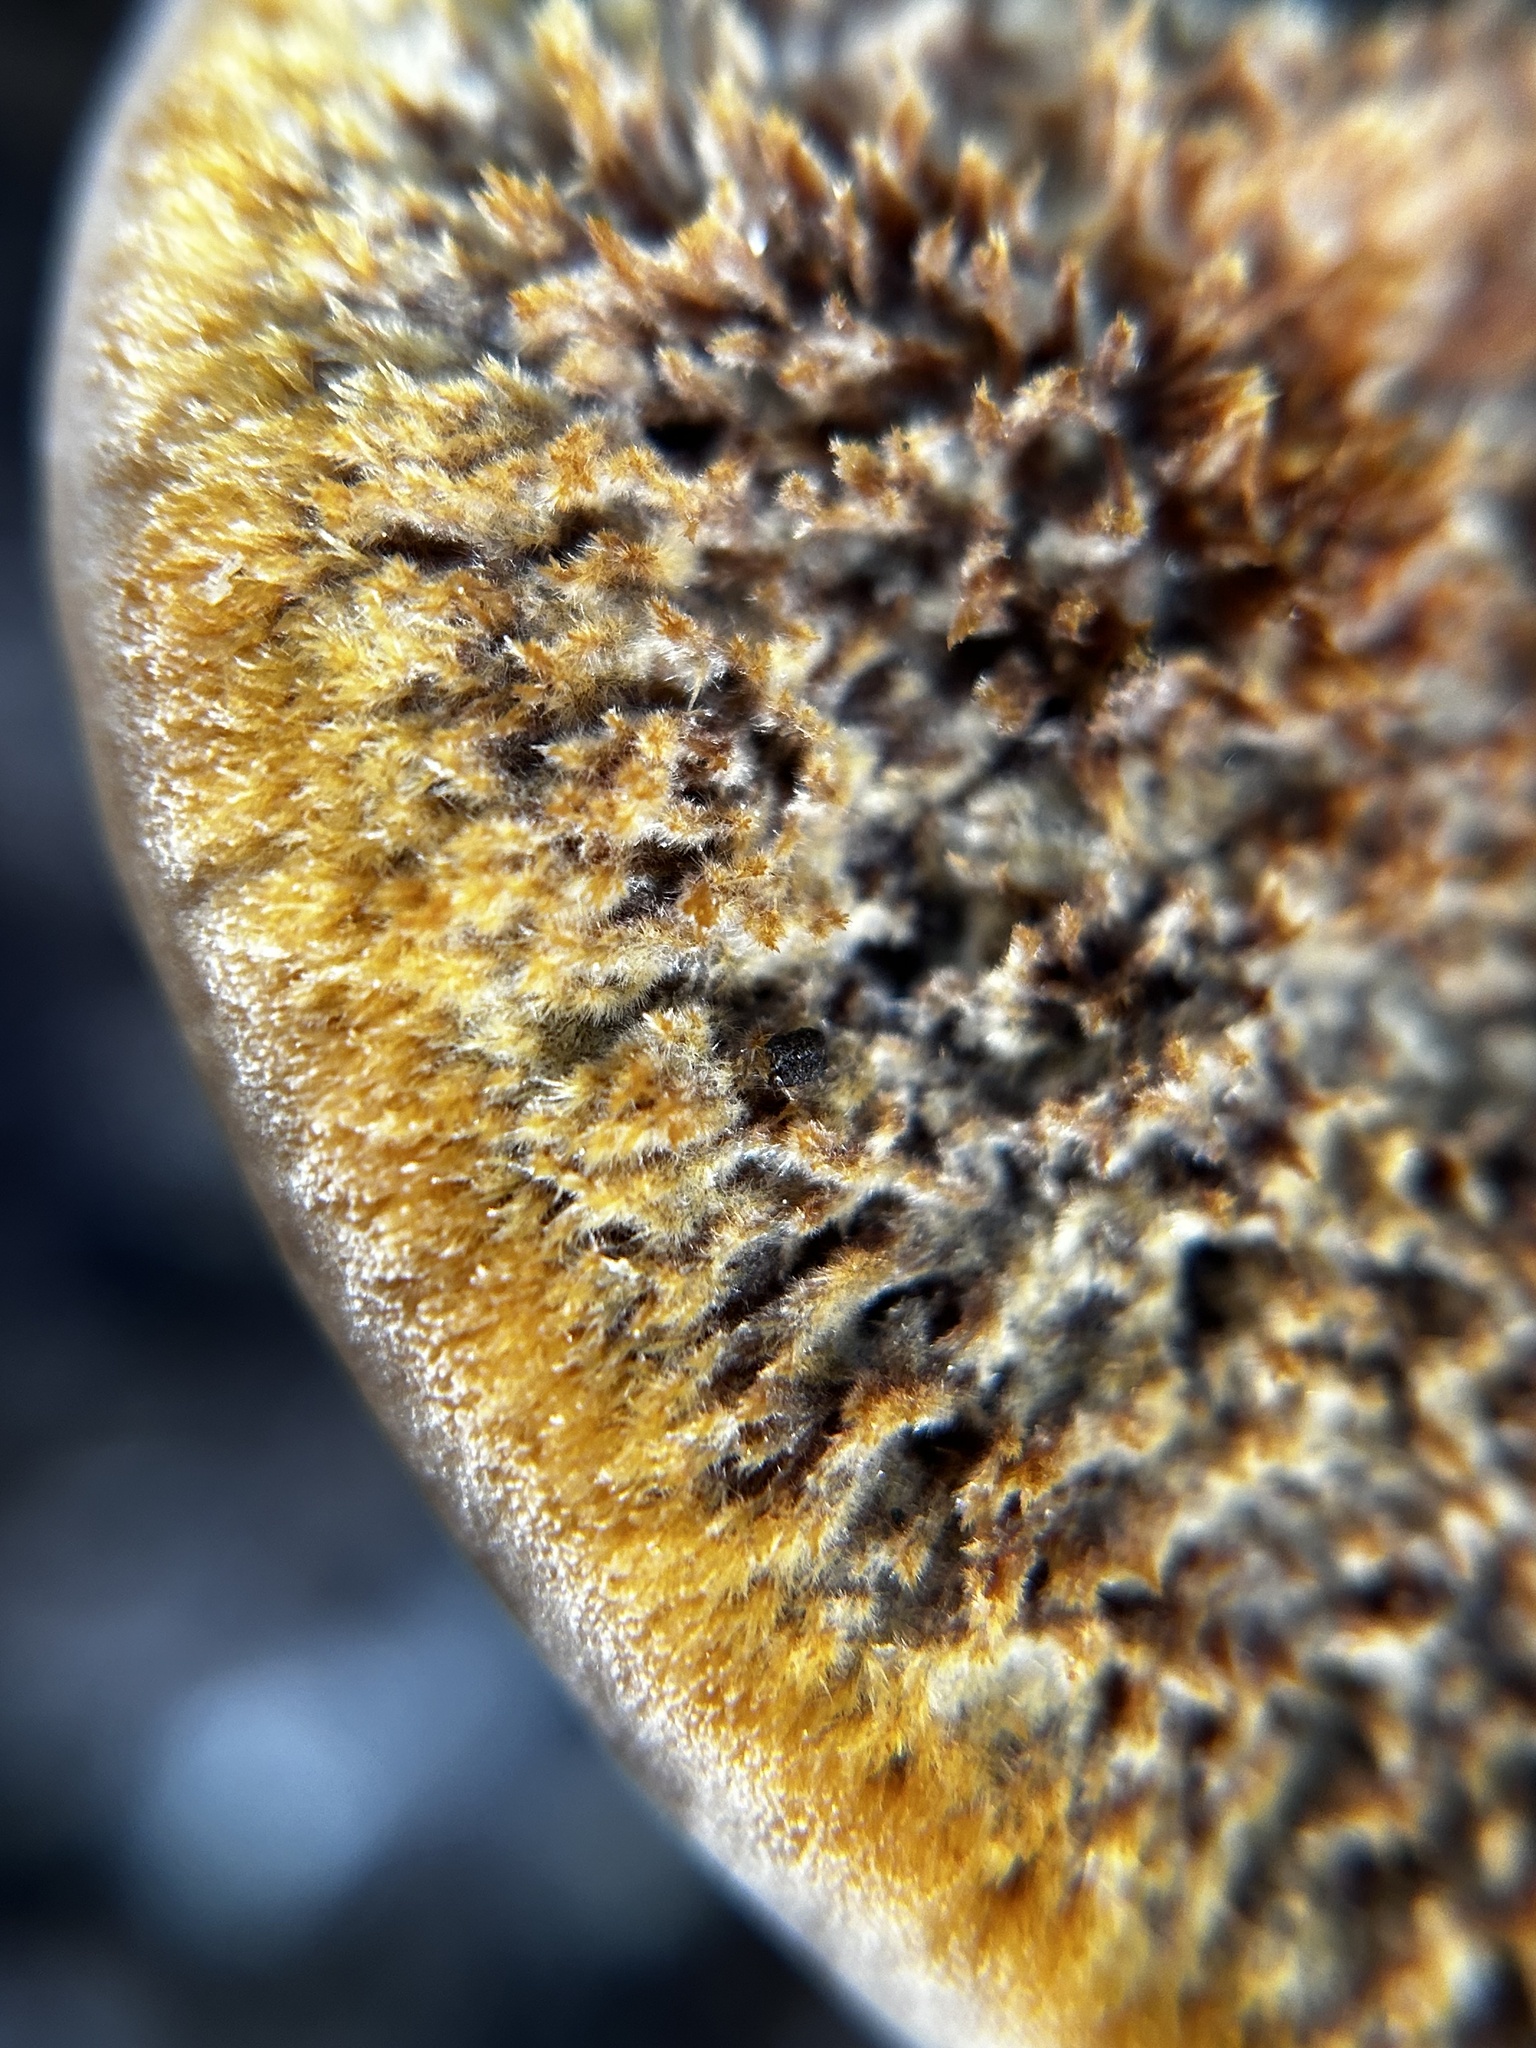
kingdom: Fungi
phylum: Basidiomycota
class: Agaricomycetes
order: Hymenochaetales
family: Hymenochaetaceae
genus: Onnia
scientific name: Onnia subtriquetra
